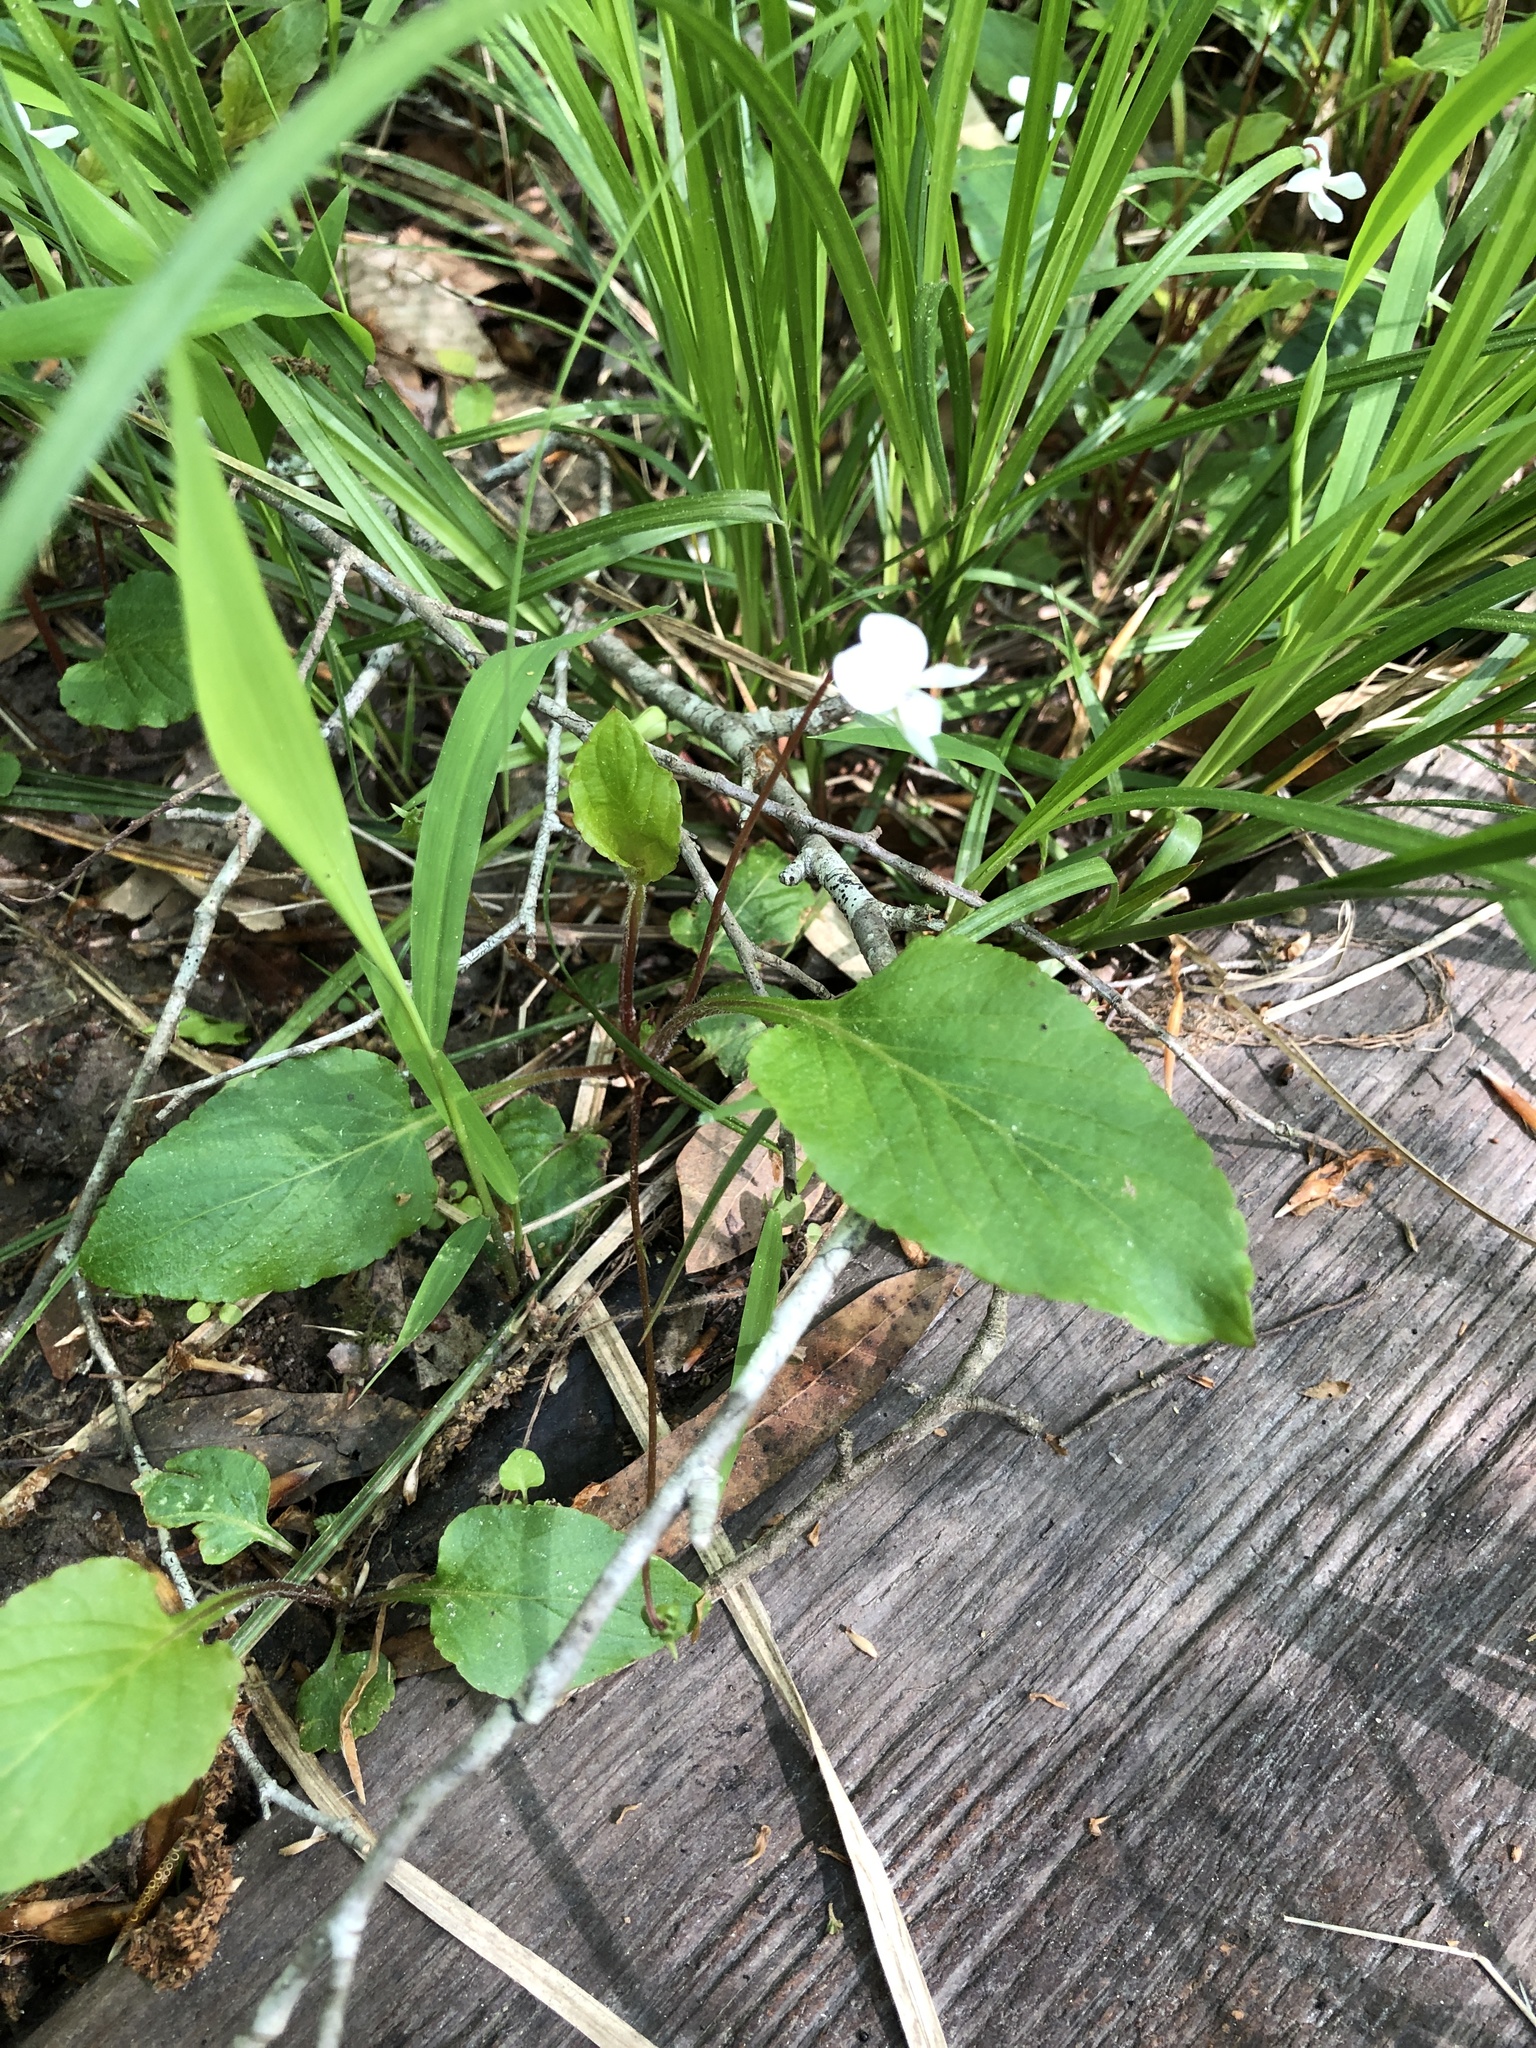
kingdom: Plantae
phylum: Tracheophyta
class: Magnoliopsida
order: Malpighiales
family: Violaceae
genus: Viola
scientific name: Viola primulifolia
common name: Primrose-leaf violet
